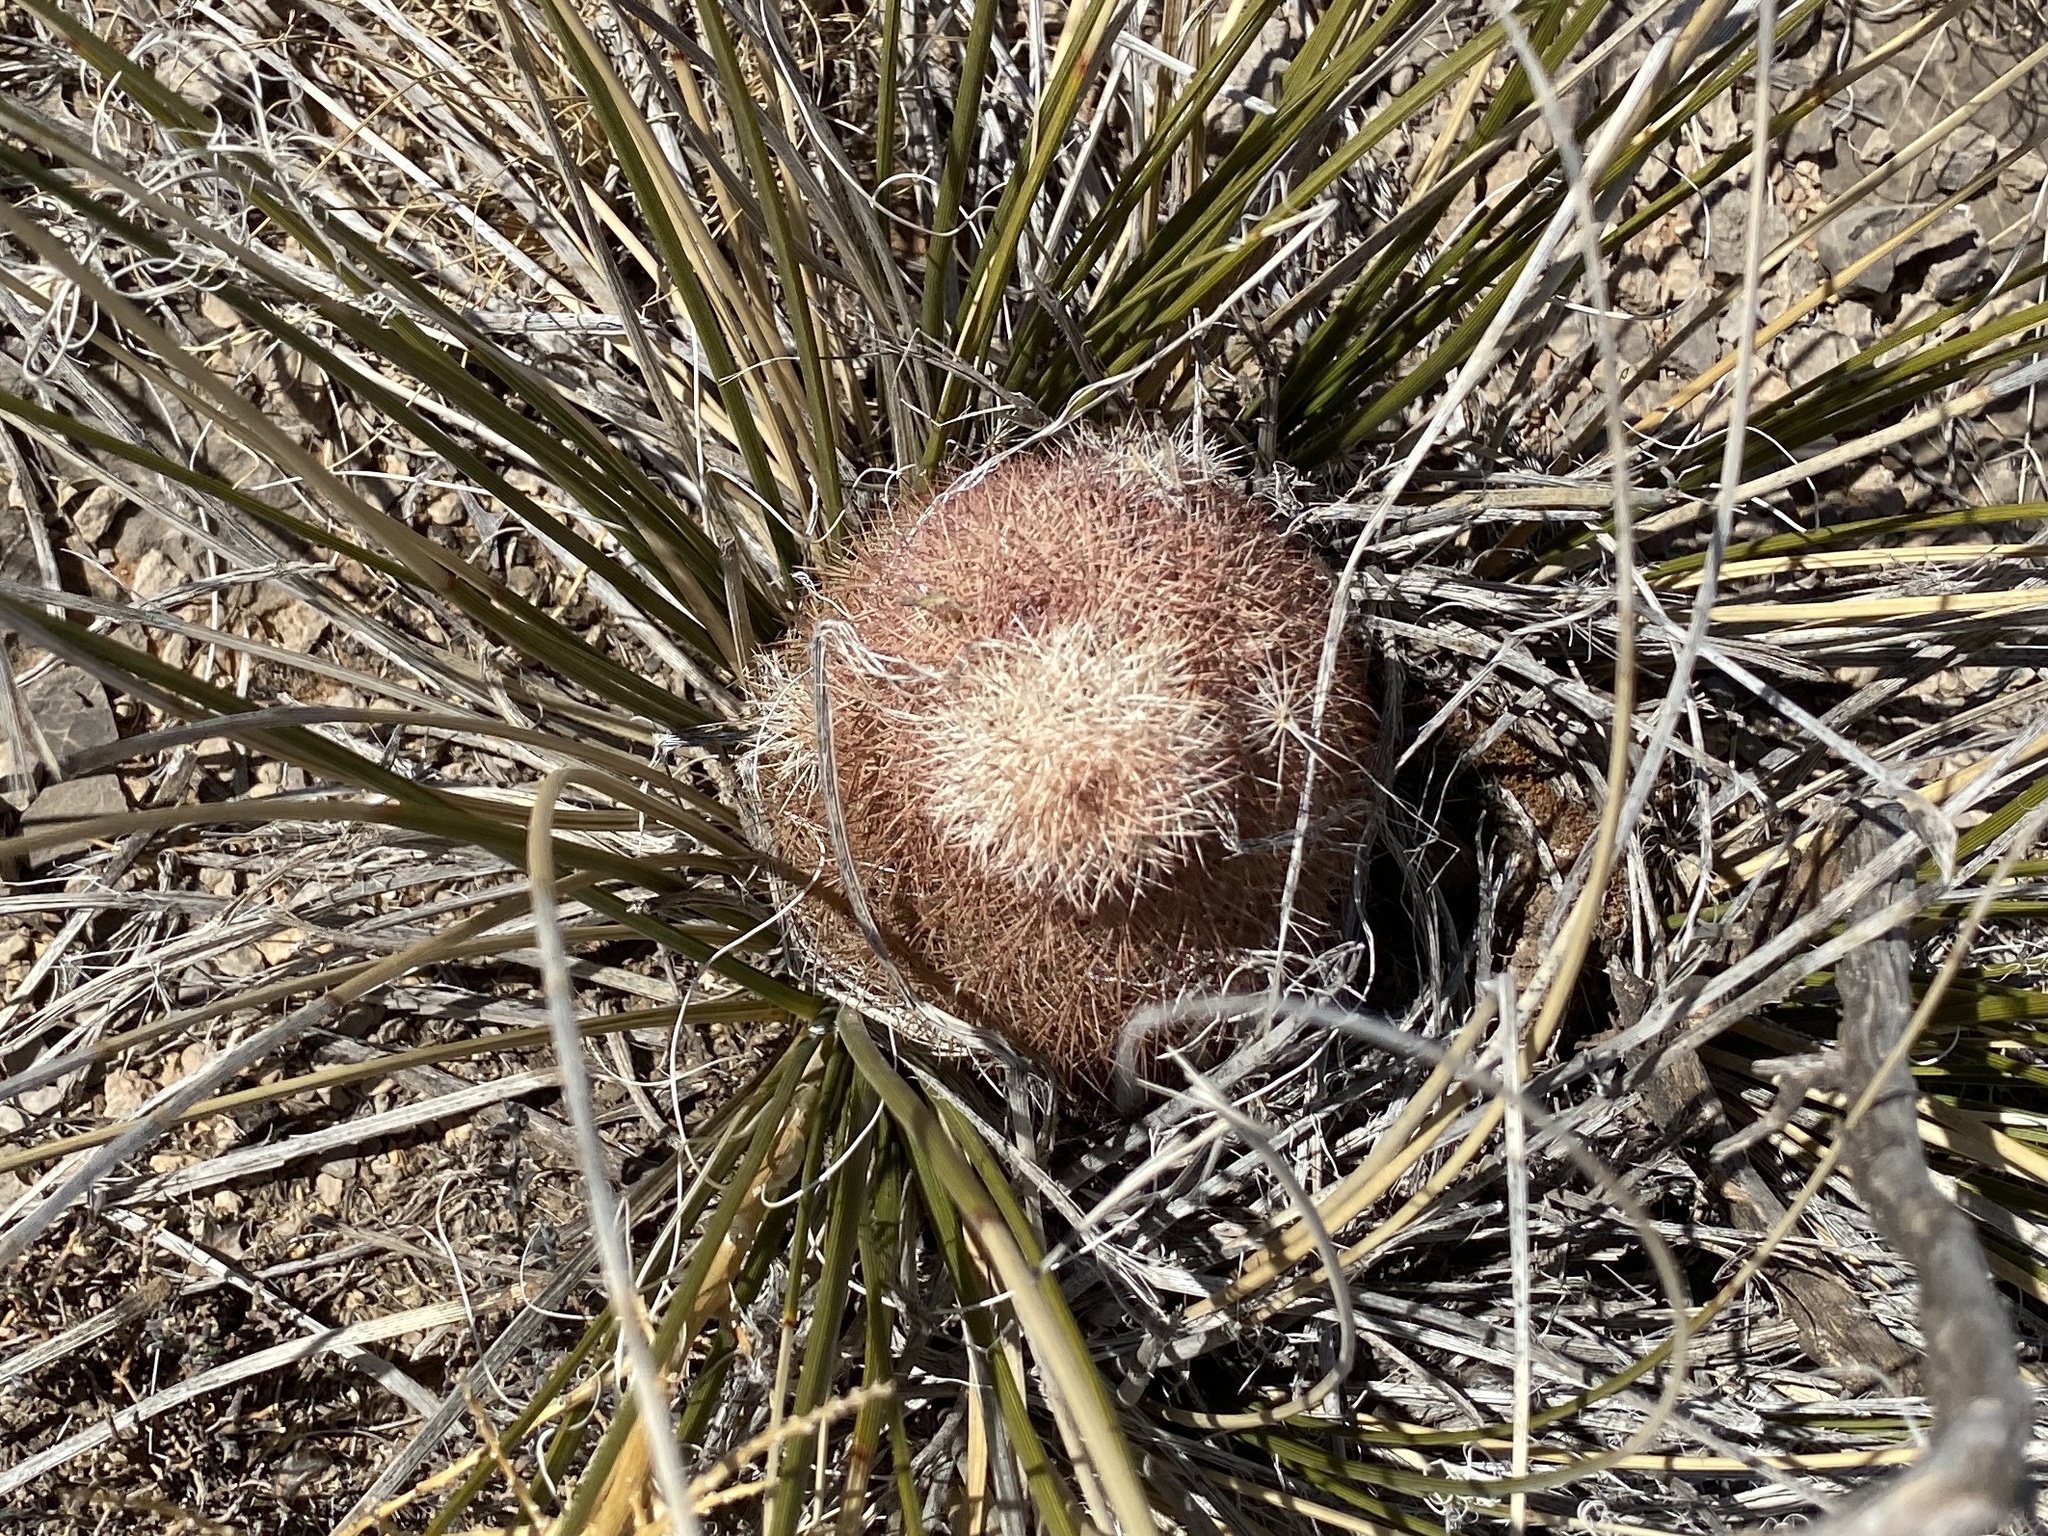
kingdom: Plantae
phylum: Tracheophyta
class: Magnoliopsida
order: Caryophyllales
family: Cactaceae
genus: Echinocereus
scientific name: Echinocereus dasyacanthus
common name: Spiny hedgehog cactus
